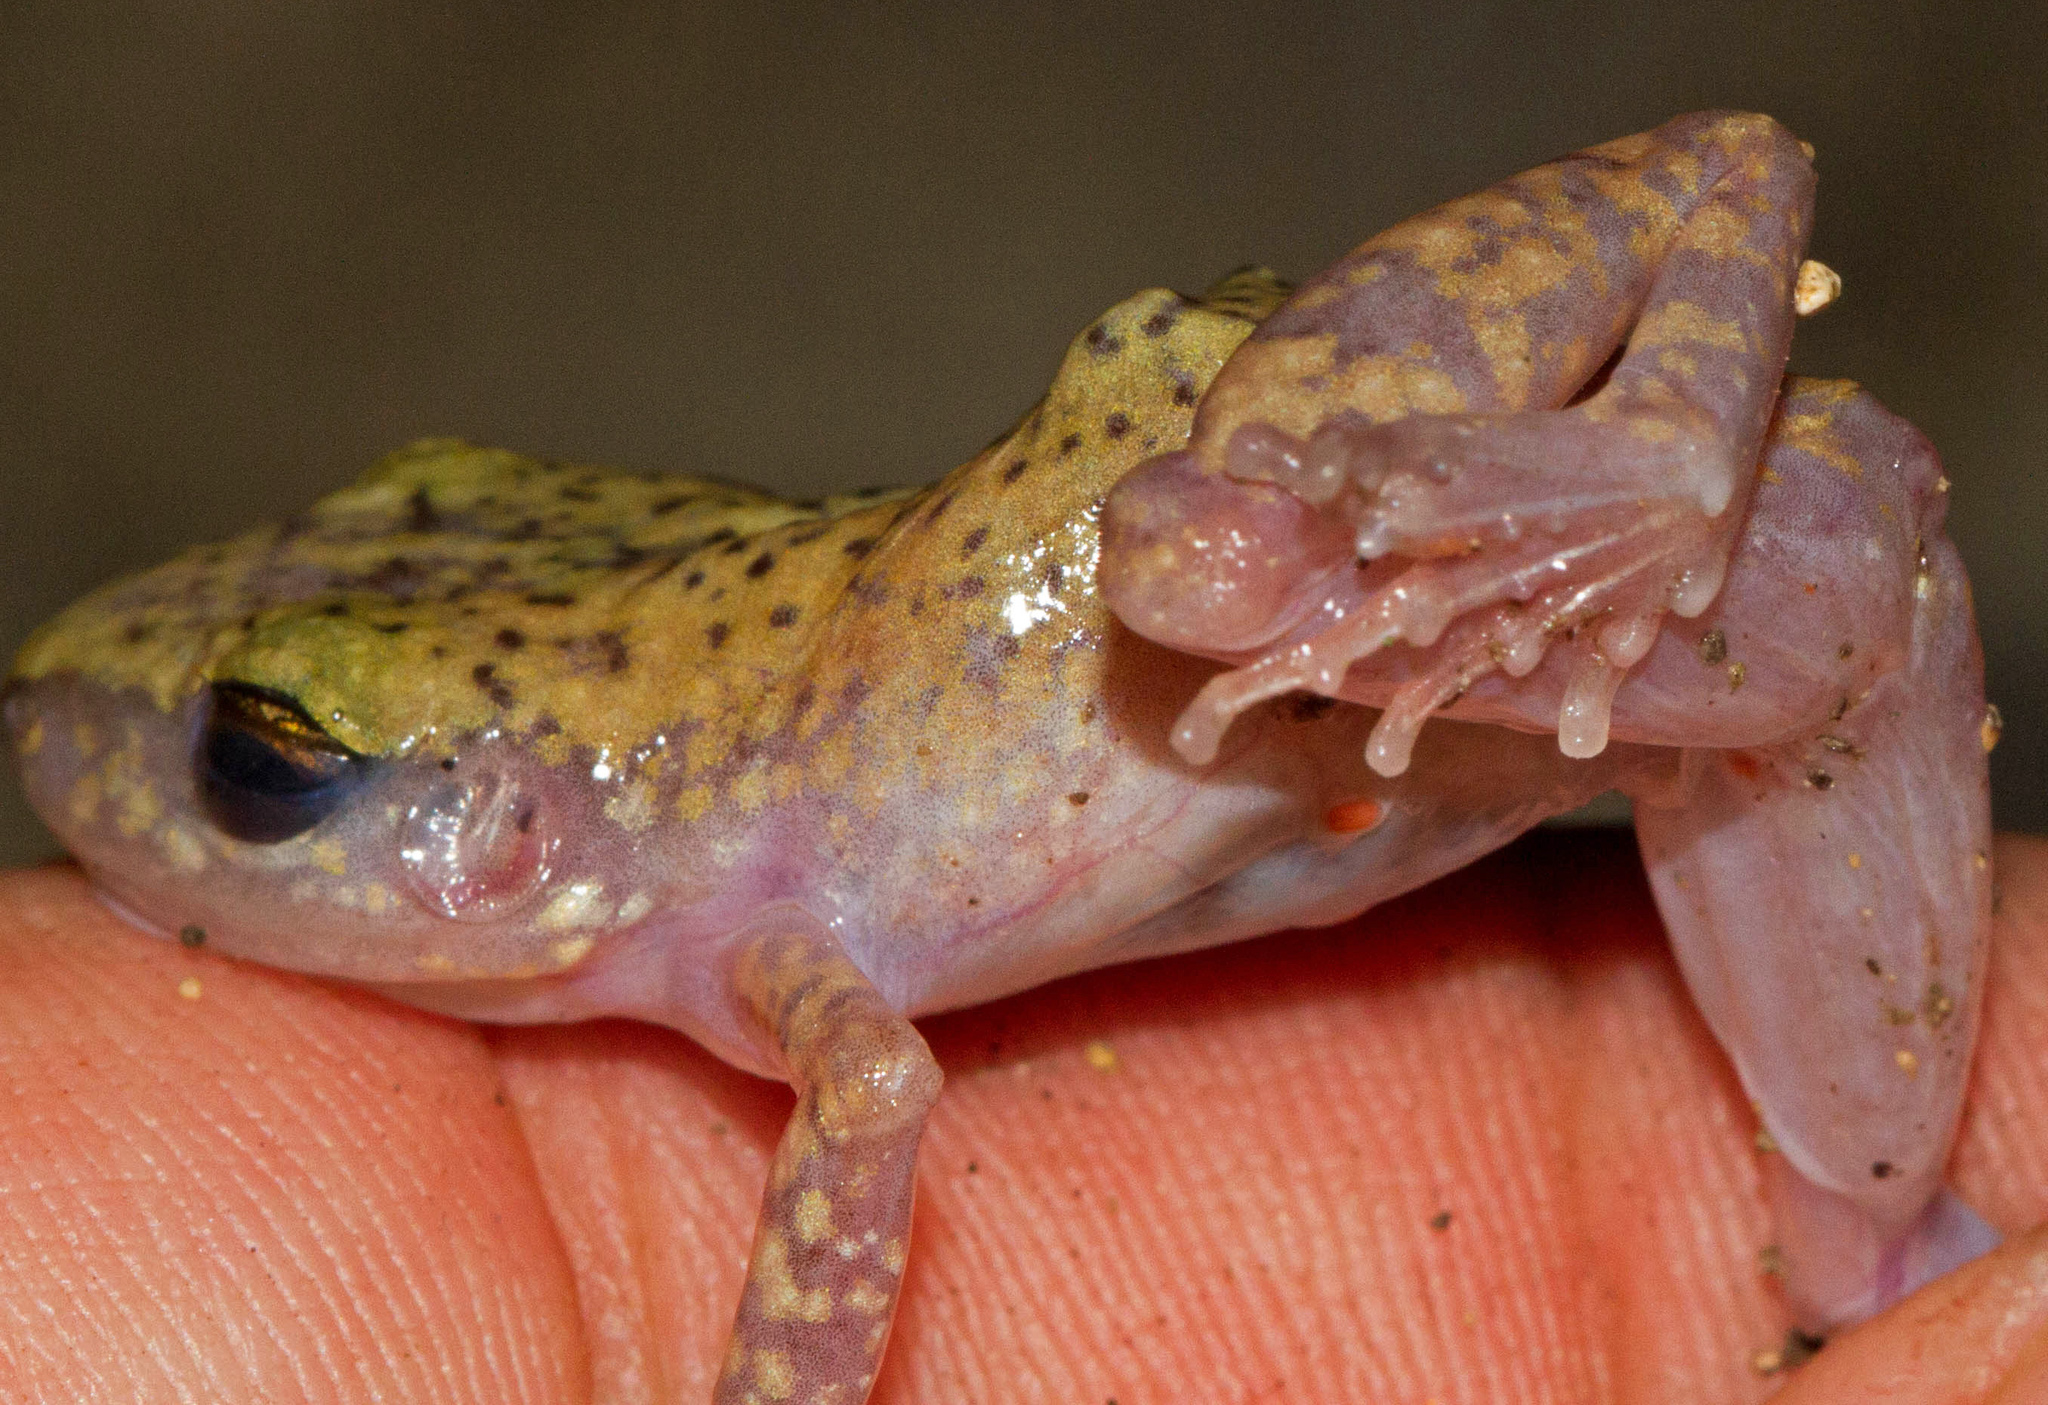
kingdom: Animalia
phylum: Chordata
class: Amphibia
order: Anura
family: Eleutherodactylidae
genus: Eleutherodactylus
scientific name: Eleutherodactylus marnockii
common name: Cliff chirping frog
